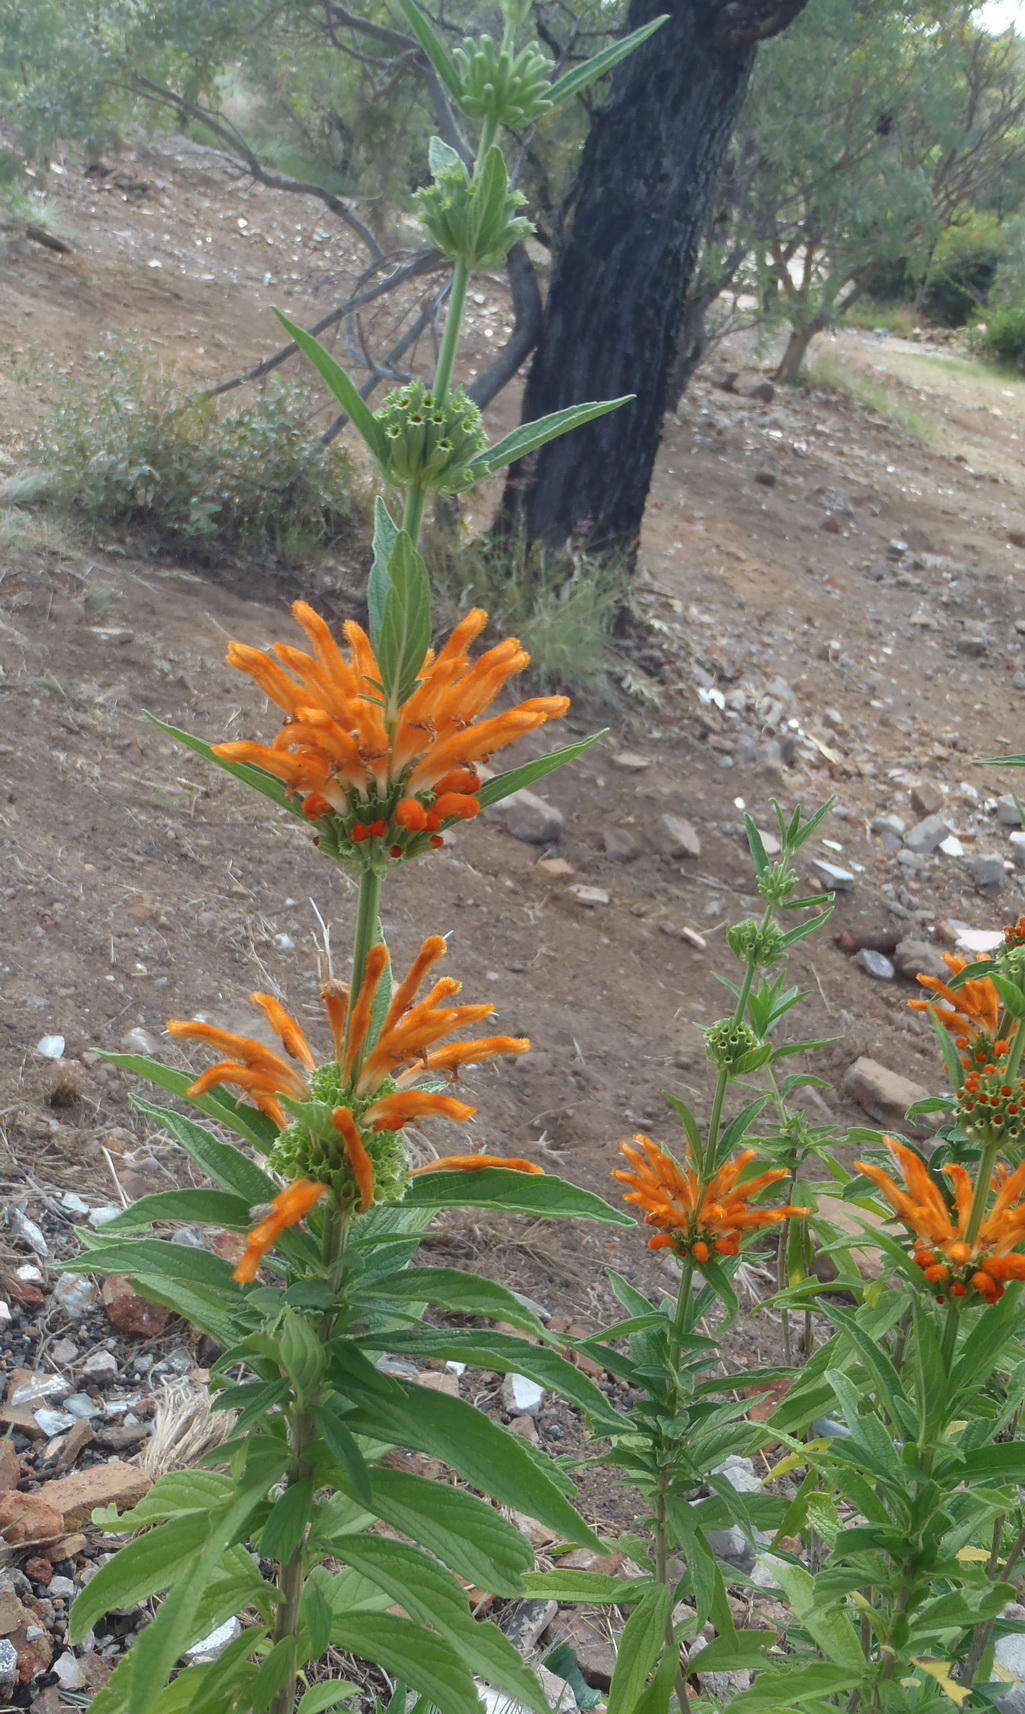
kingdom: Plantae
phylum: Tracheophyta
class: Magnoliopsida
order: Lamiales
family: Lamiaceae
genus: Leonotis
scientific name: Leonotis leonurus
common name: Lion's ear
